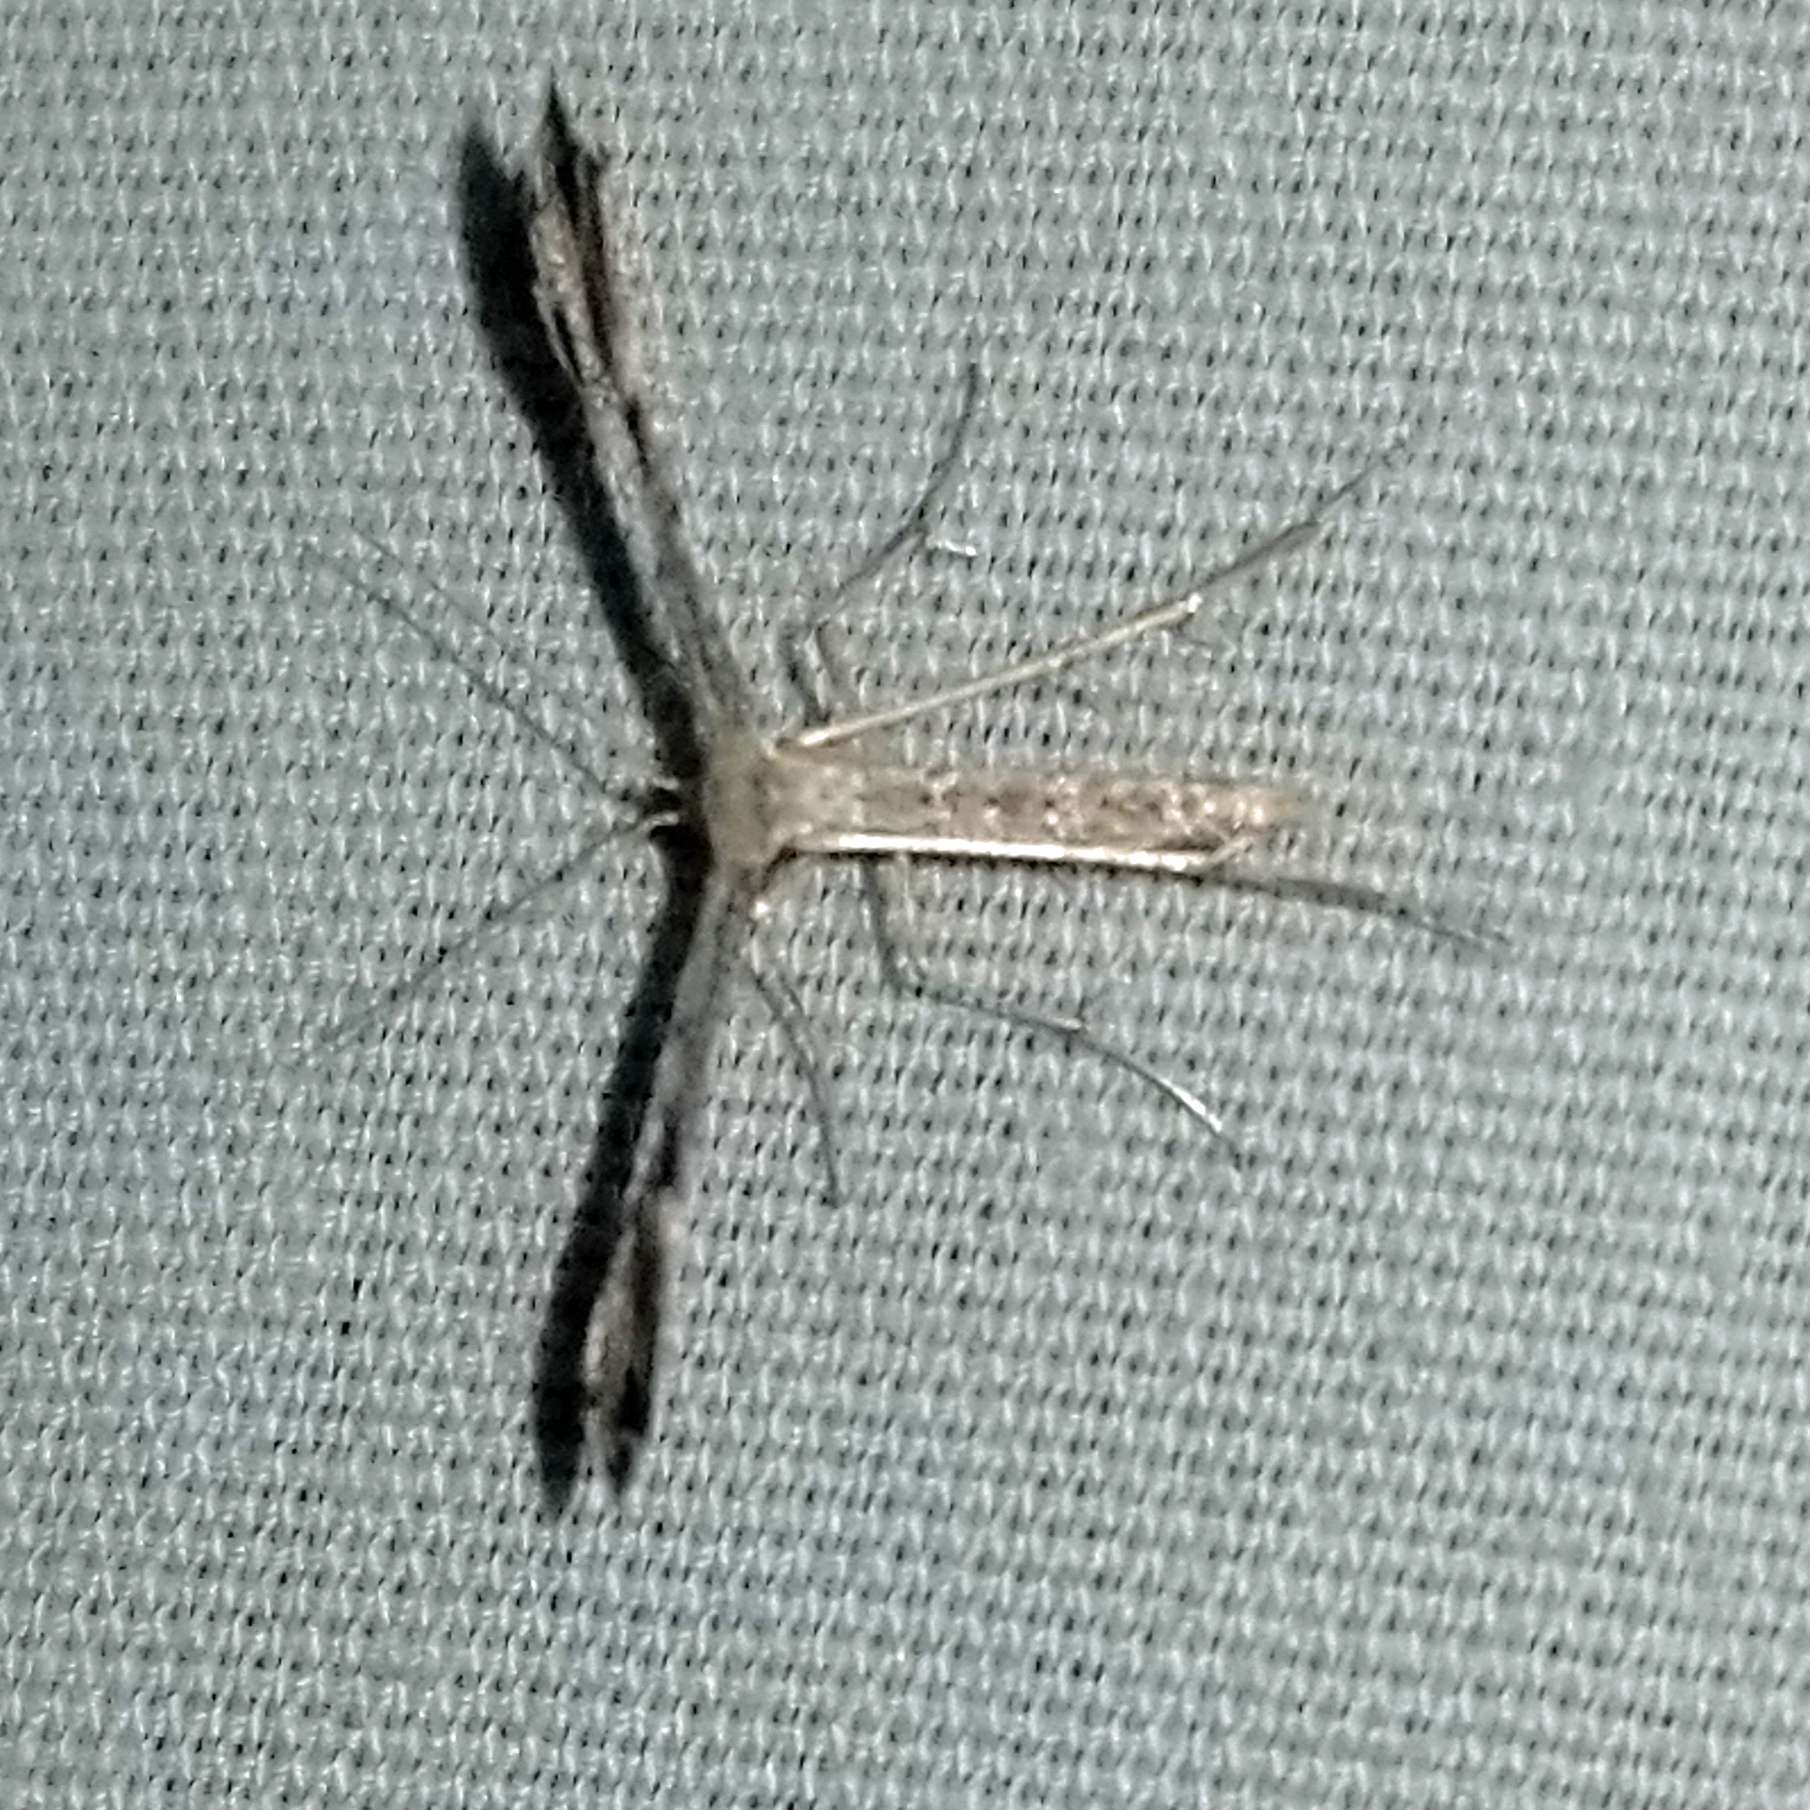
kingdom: Animalia
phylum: Arthropoda
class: Insecta
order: Lepidoptera
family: Pterophoridae
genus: Adaina
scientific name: Adaina ambrosiae
